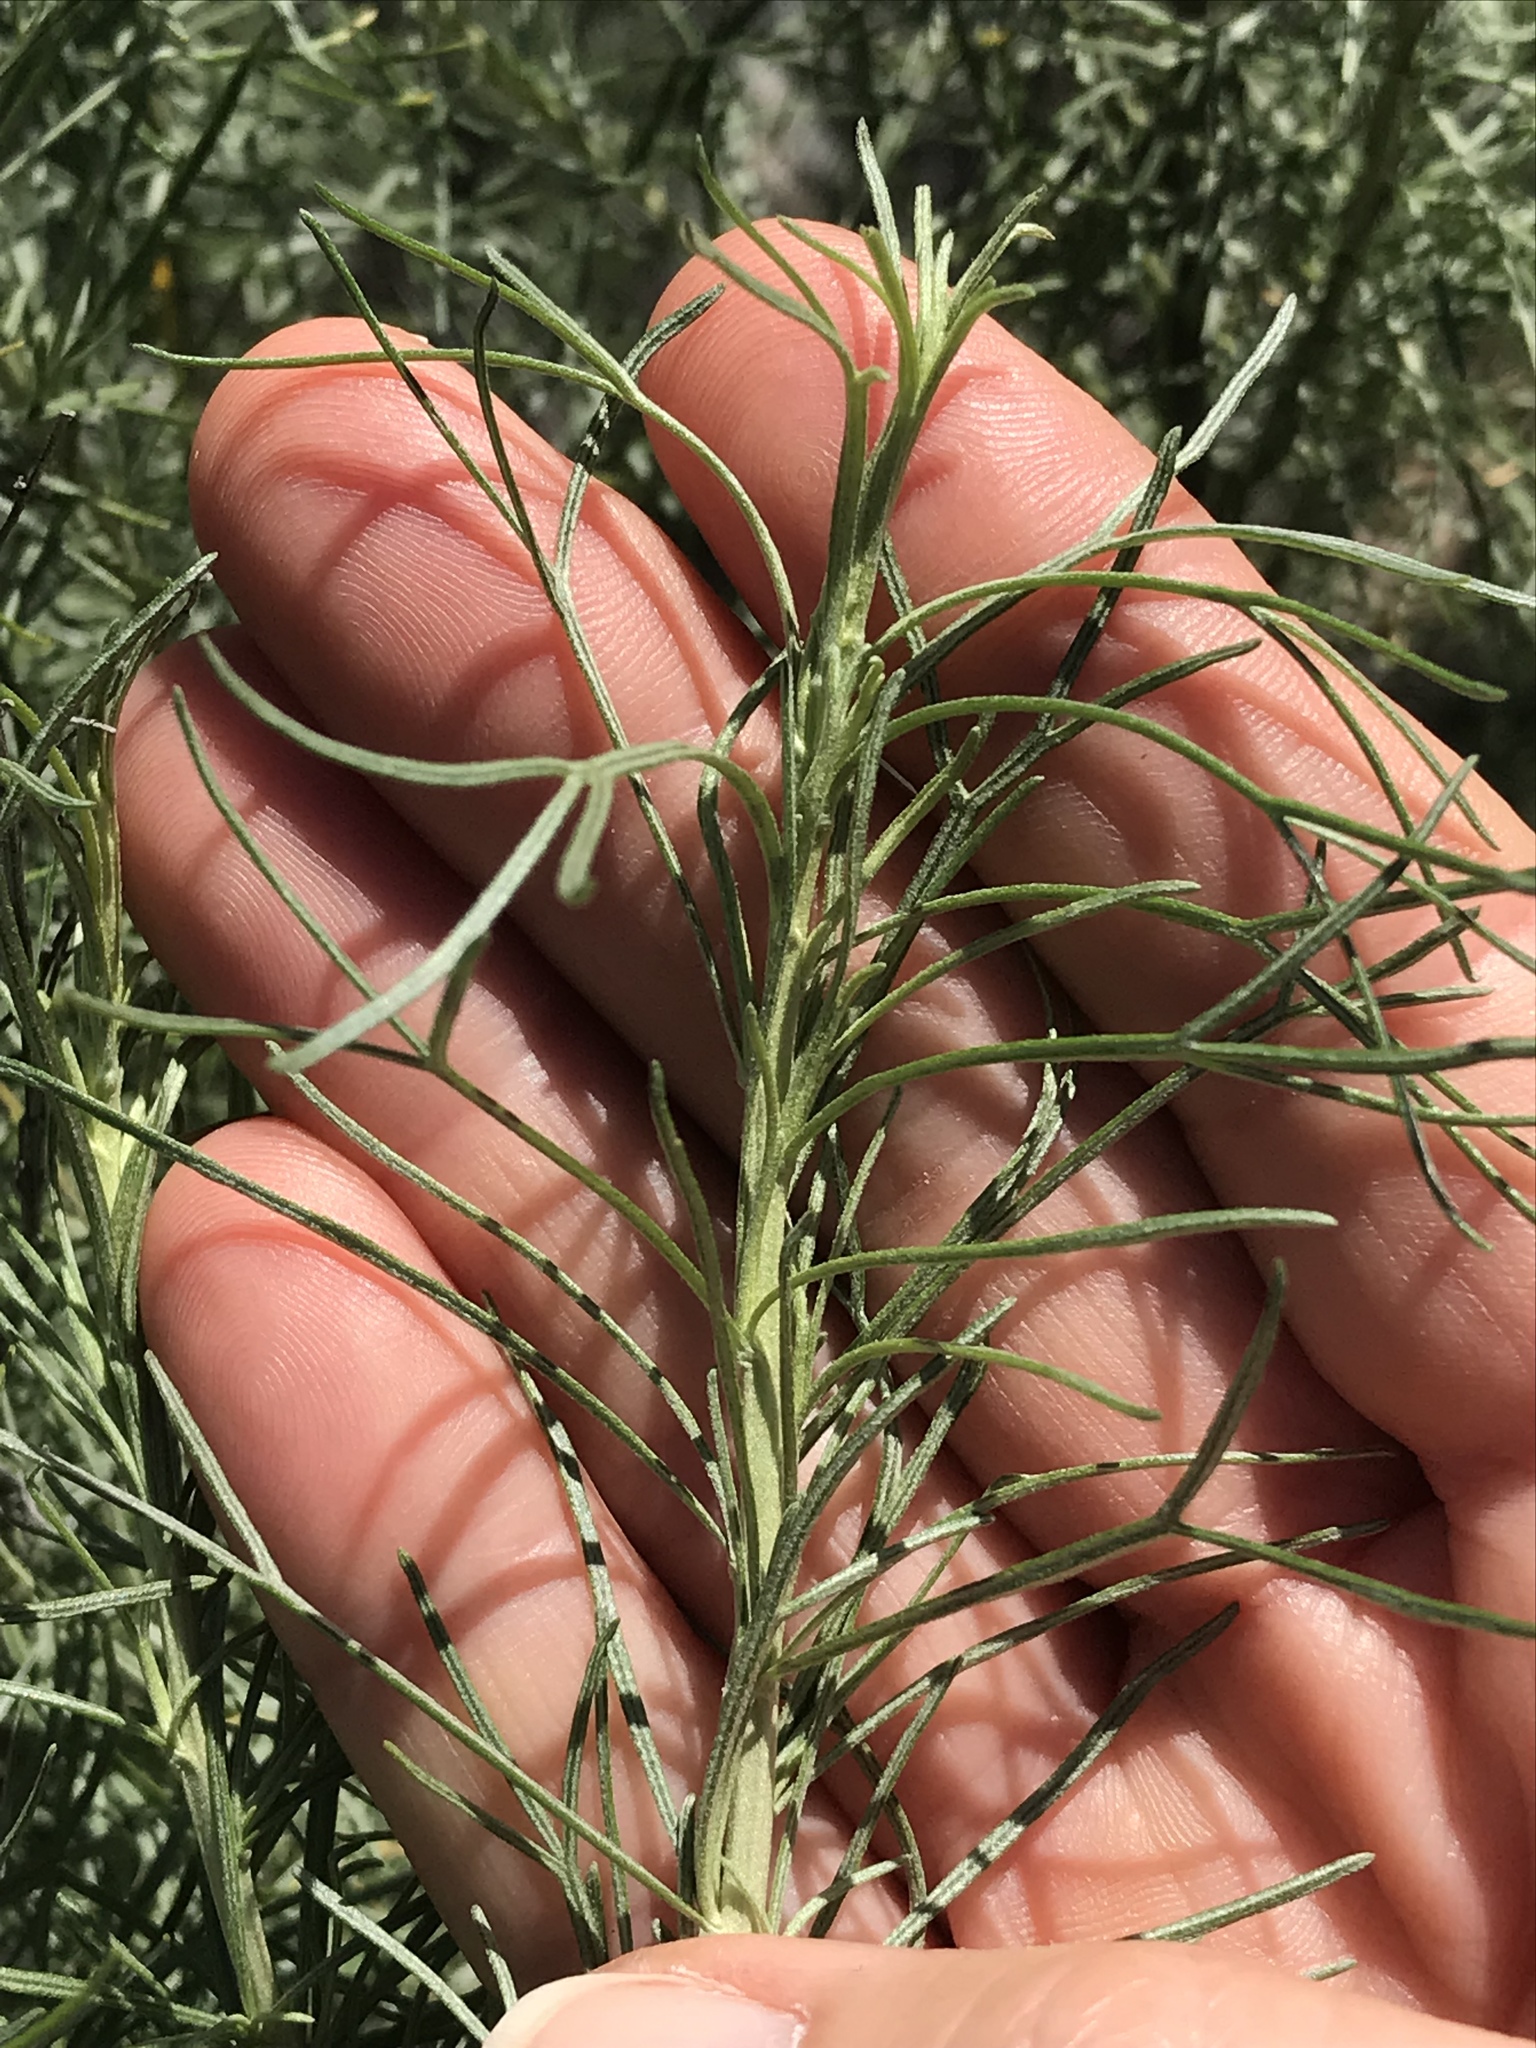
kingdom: Plantae
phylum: Tracheophyta
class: Magnoliopsida
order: Asterales
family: Asteraceae
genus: Artemisia
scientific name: Artemisia californica
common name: California sagebrush
